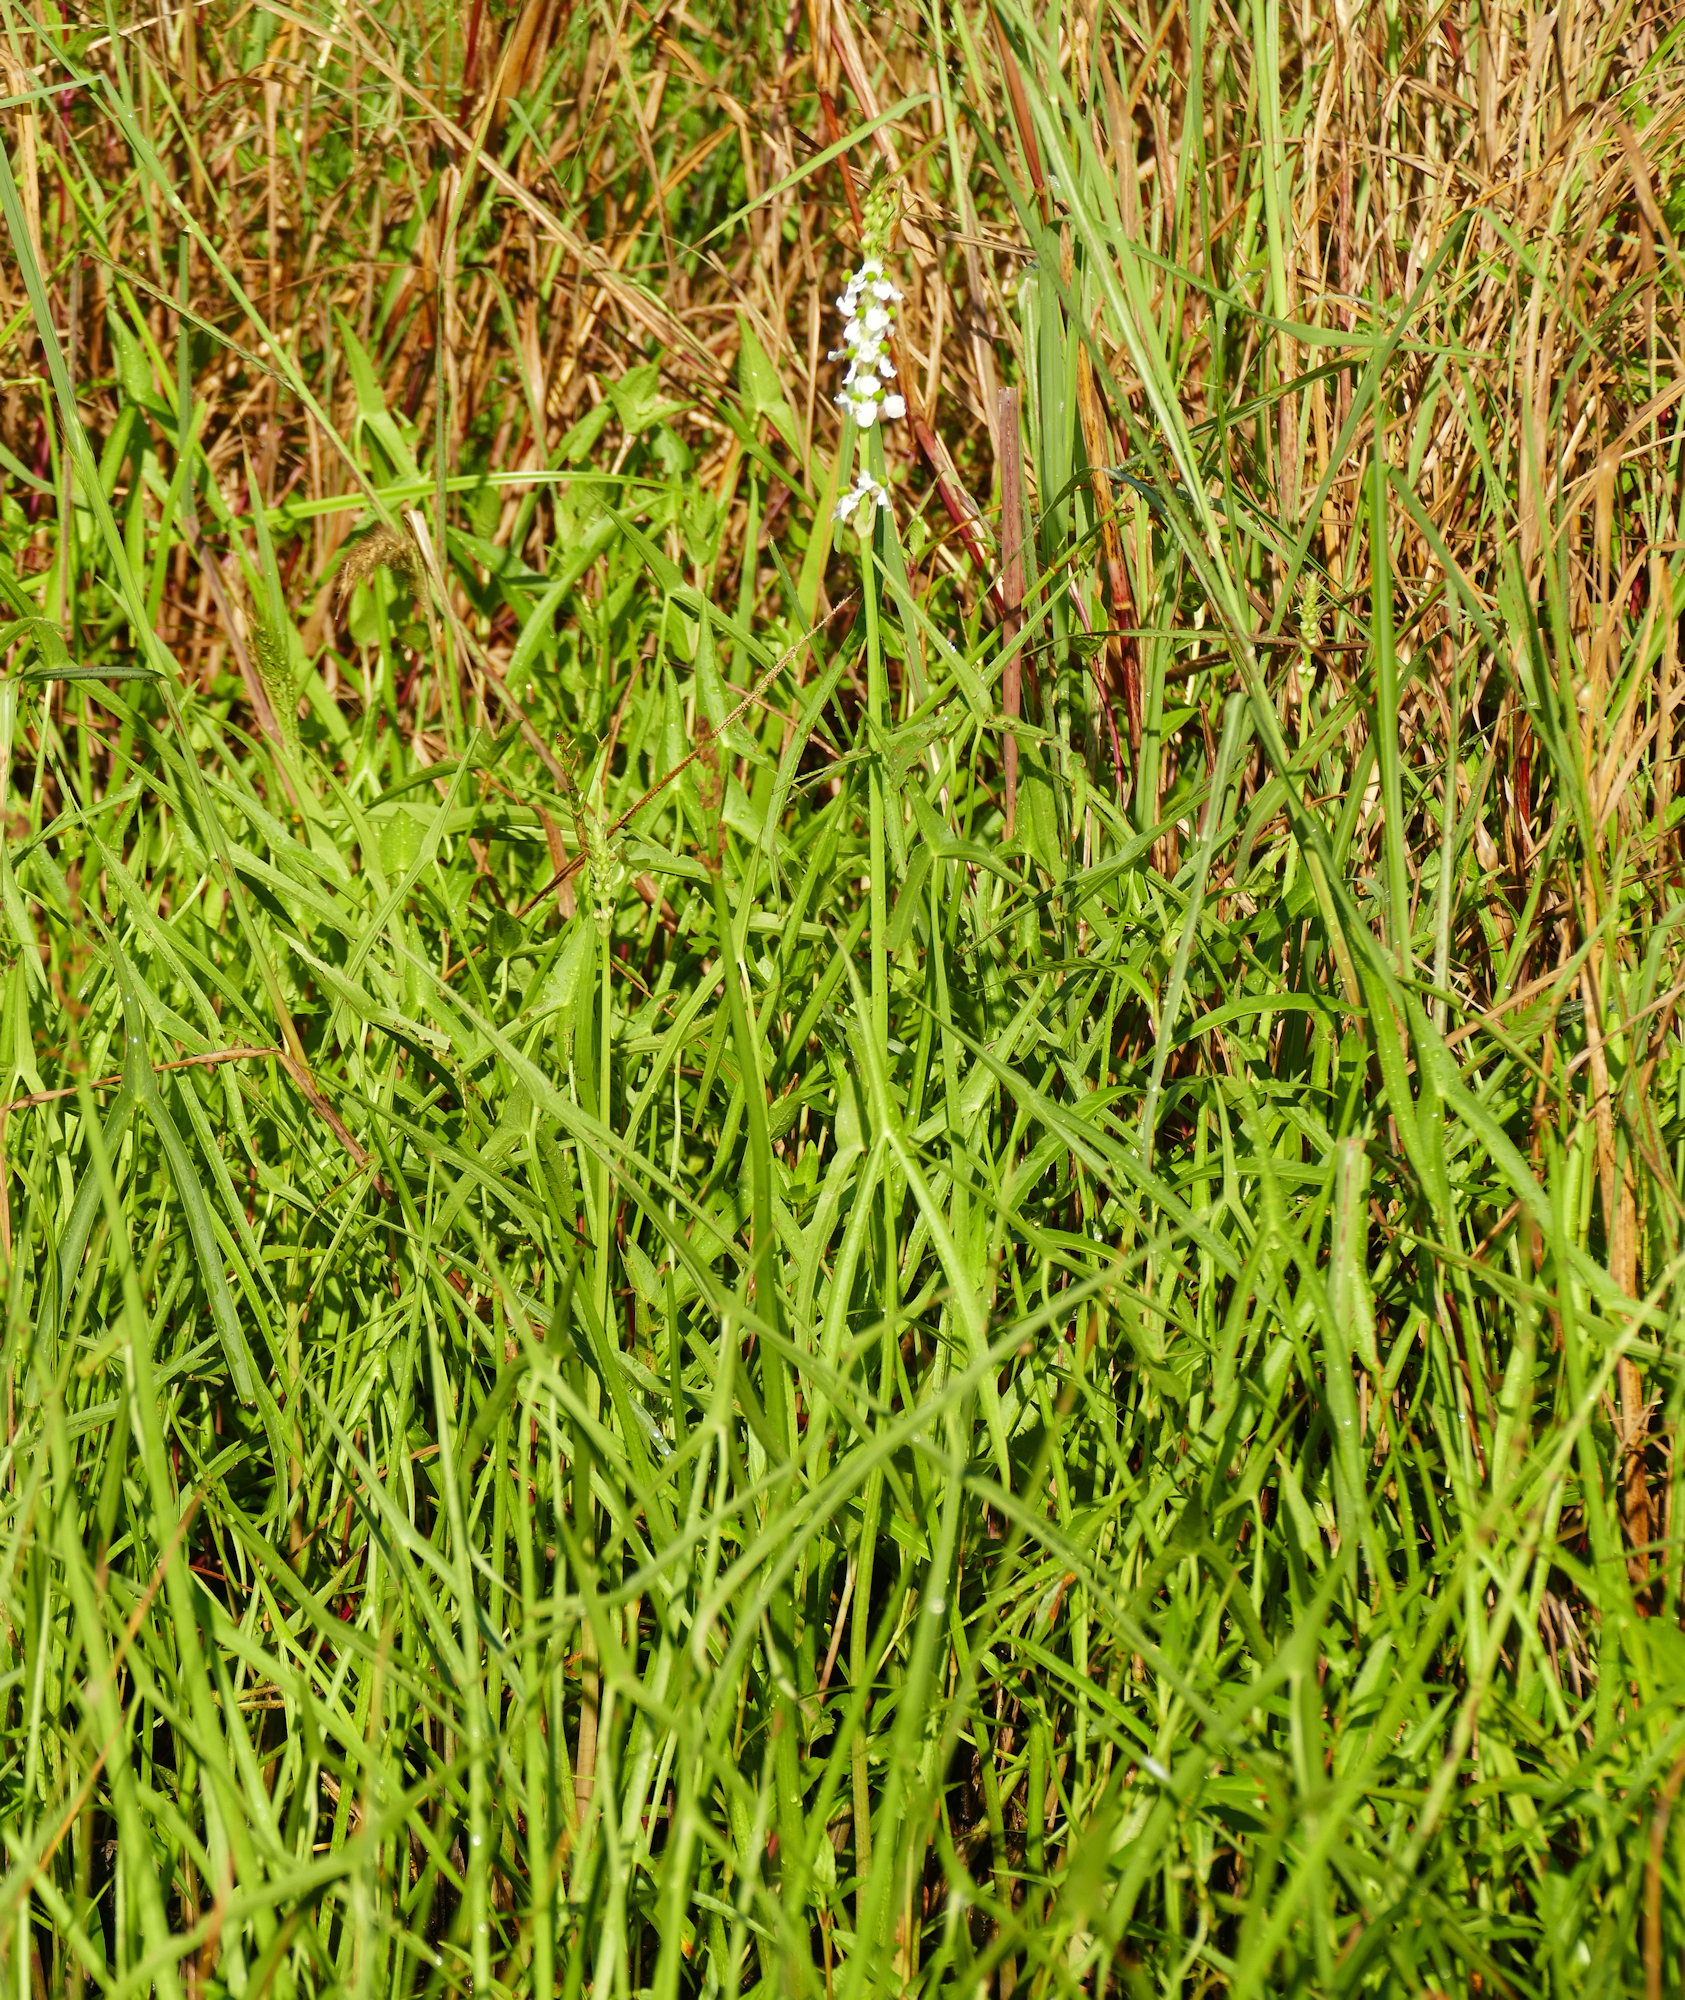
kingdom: Plantae
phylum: Tracheophyta
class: Liliopsida
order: Alismatales
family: Alismataceae
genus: Sagittaria
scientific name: Sagittaria longiloba
